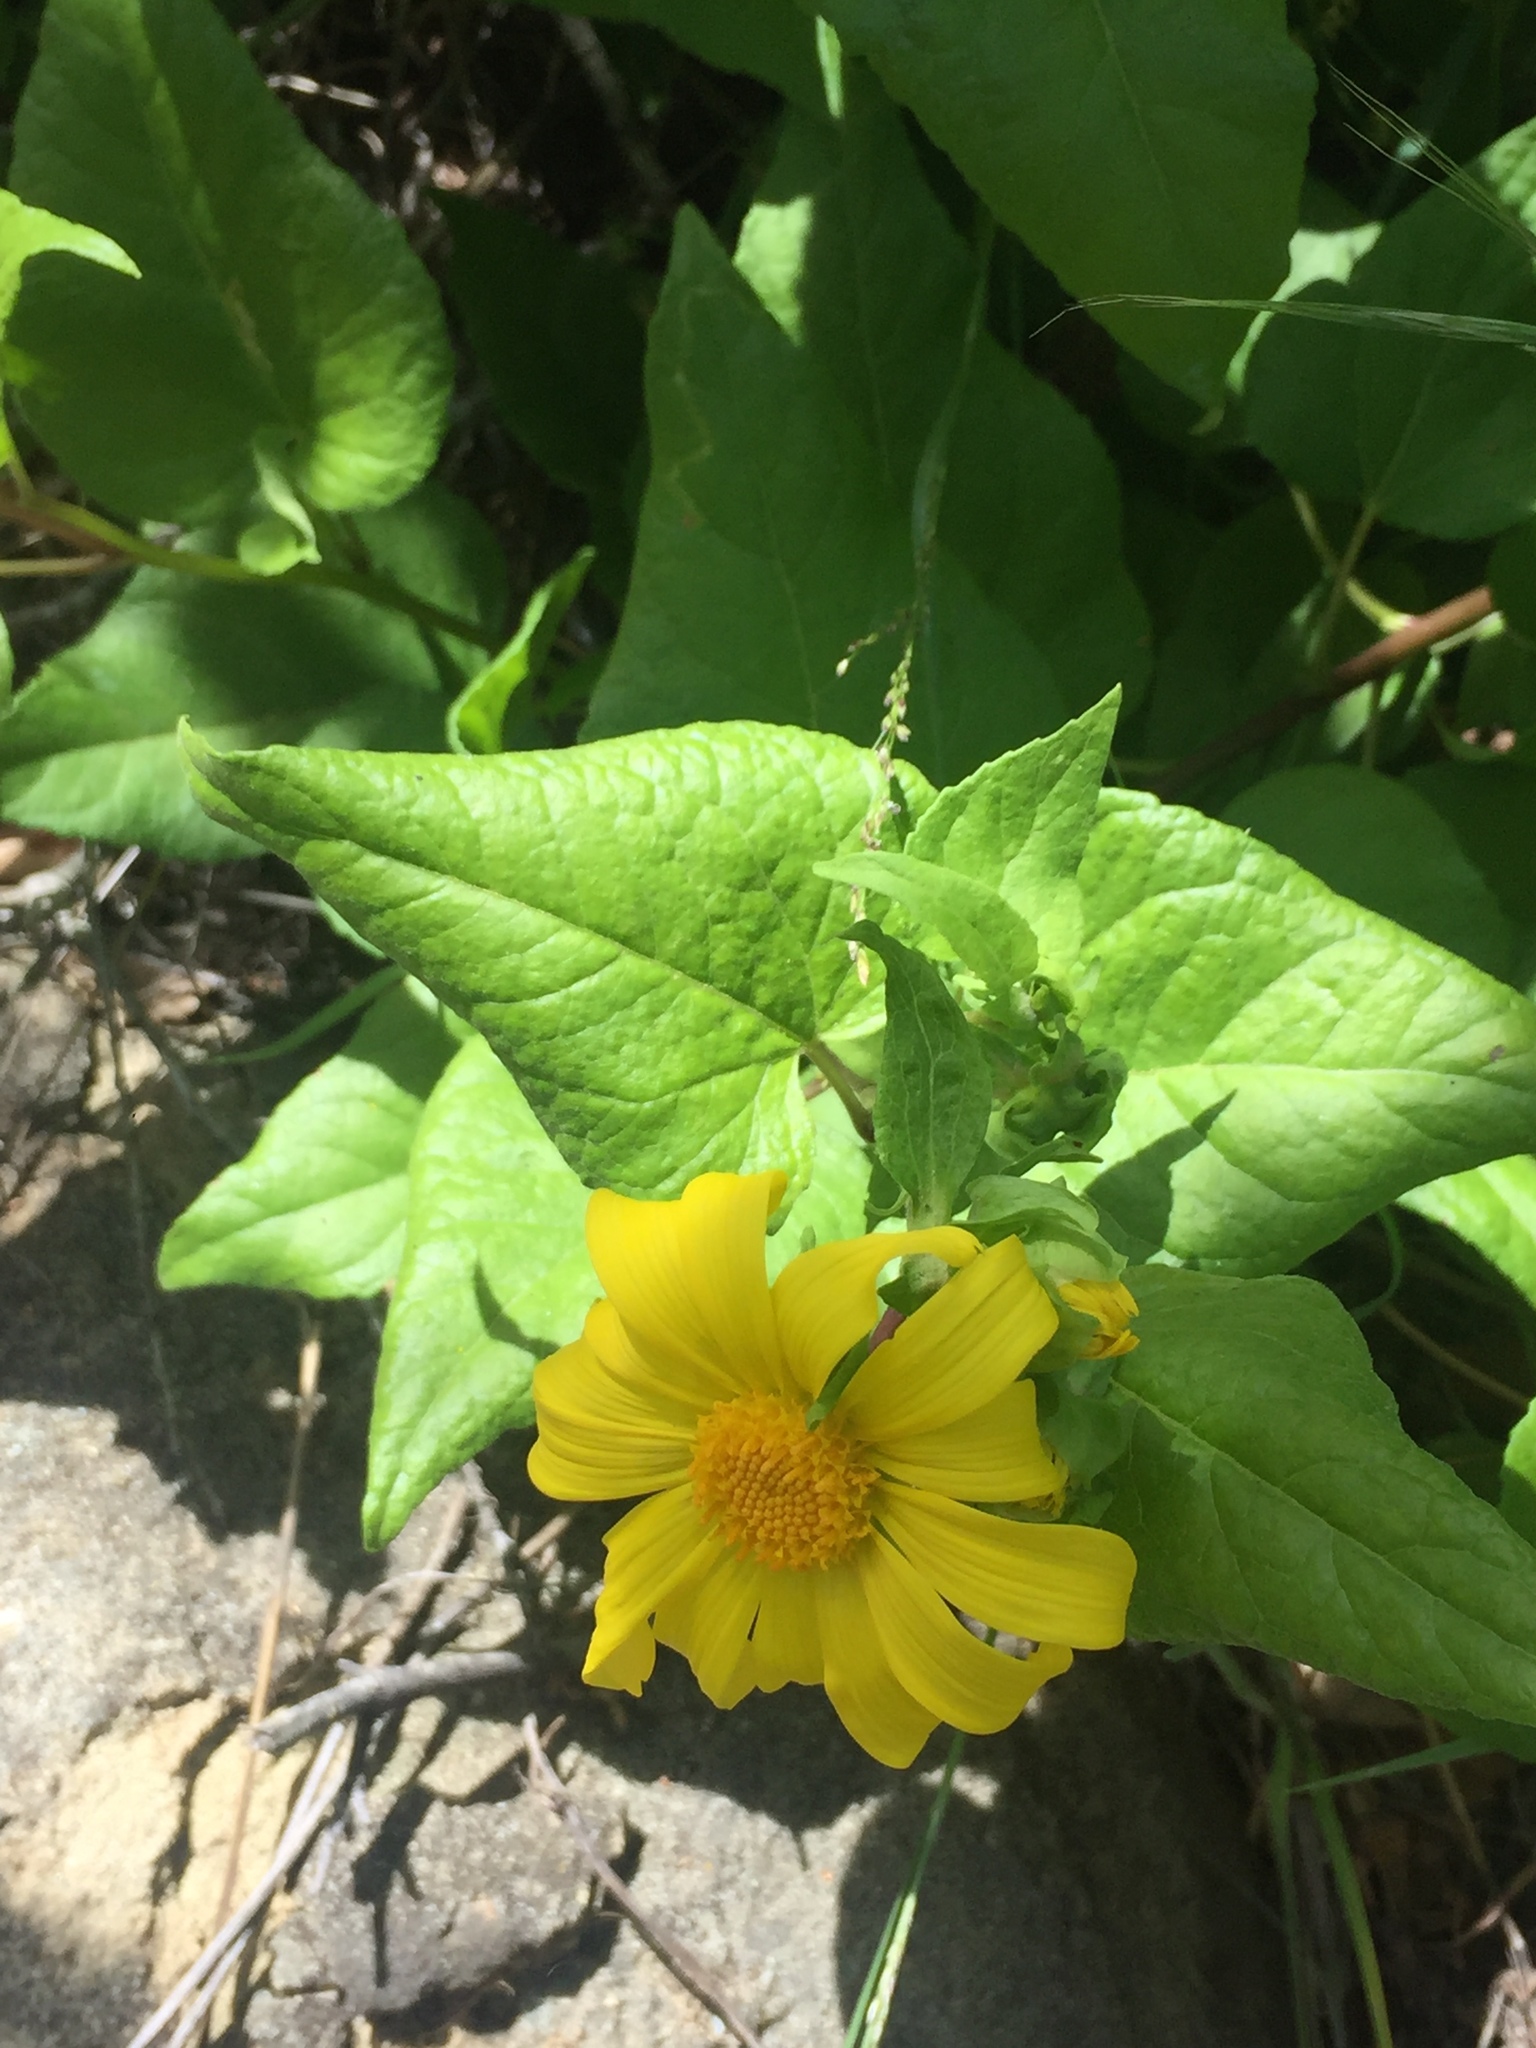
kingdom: Plantae
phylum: Tracheophyta
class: Magnoliopsida
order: Asterales
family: Asteraceae
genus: Venegasia
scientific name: Venegasia carpesioides
